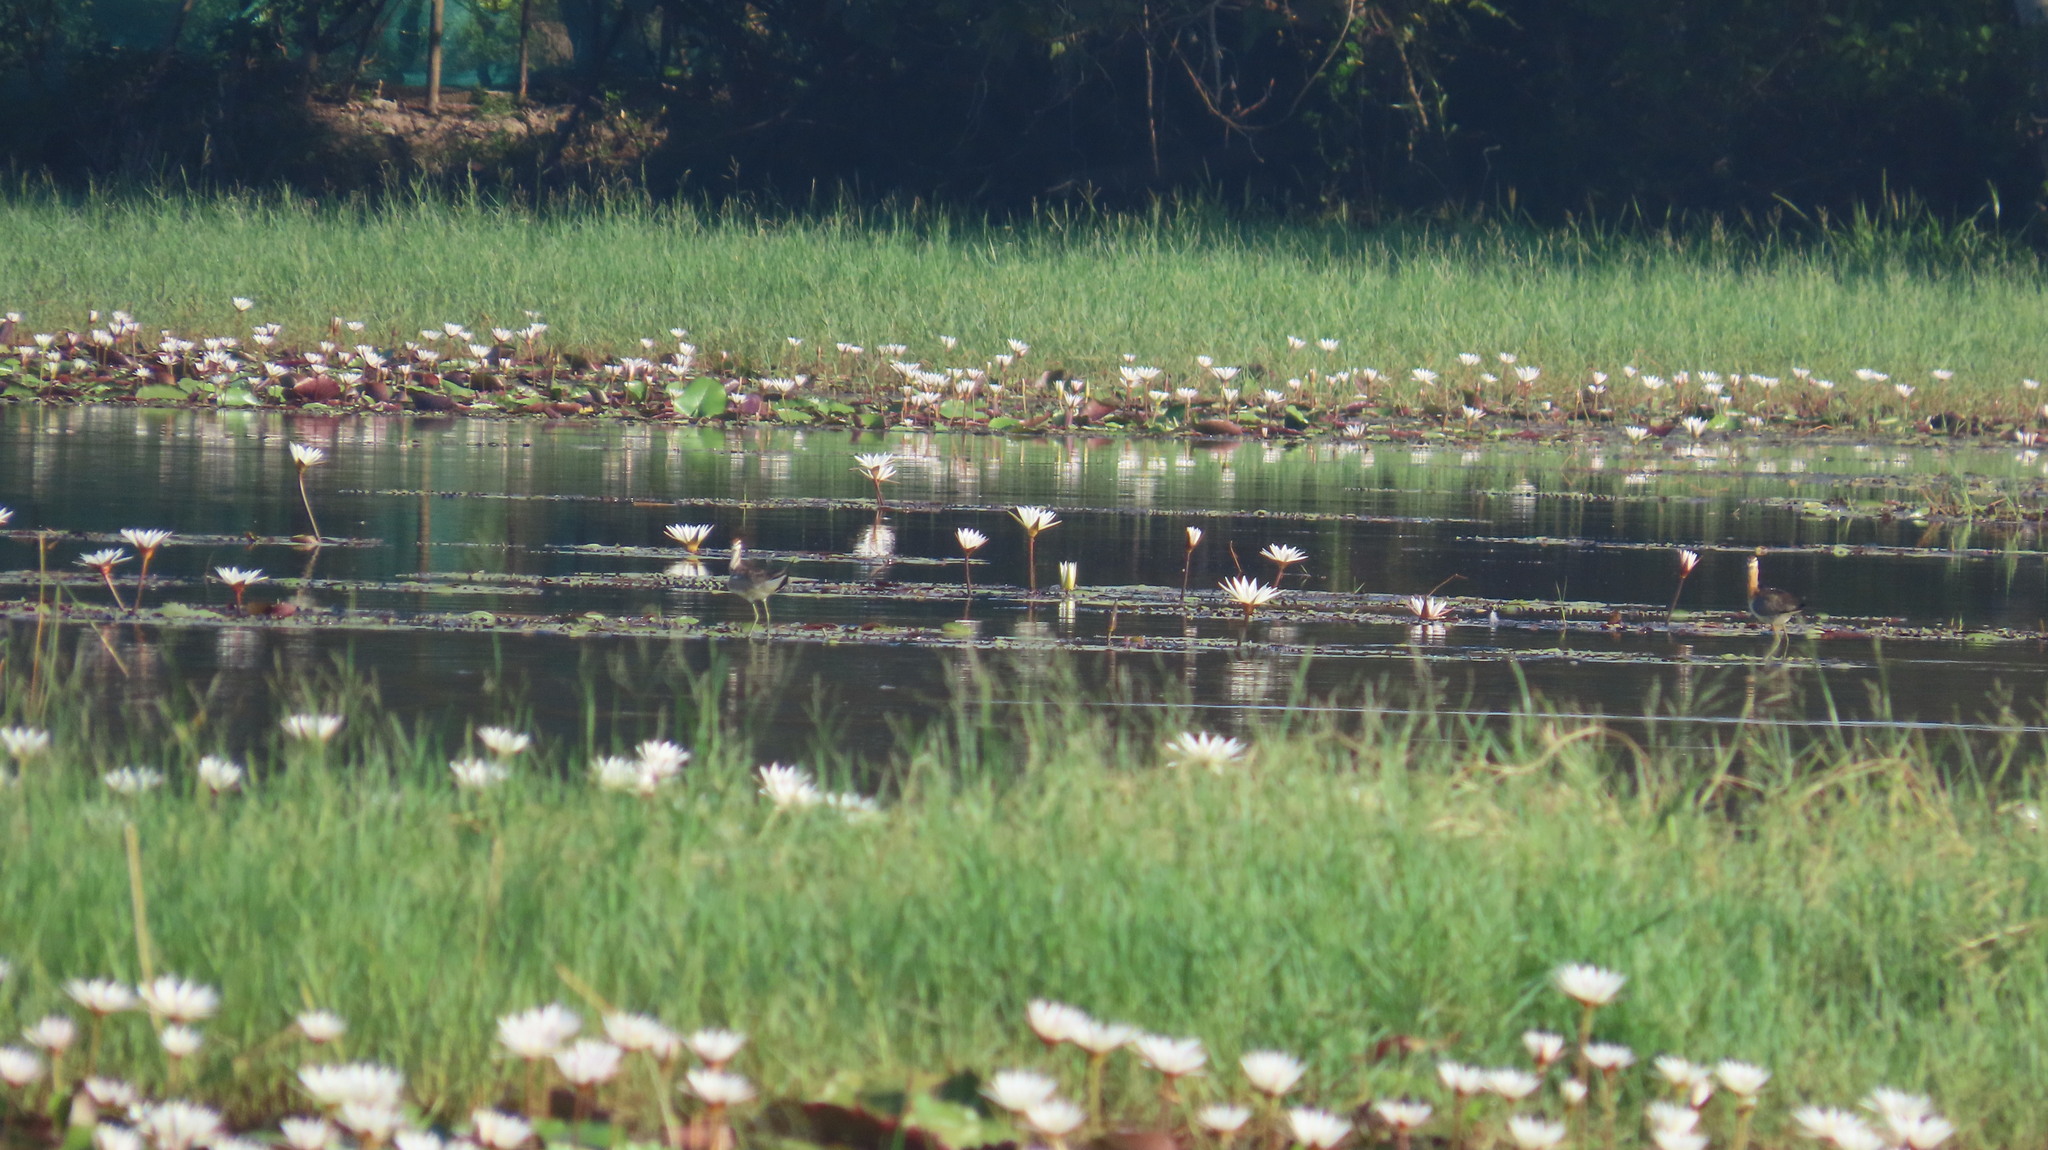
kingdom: Animalia
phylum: Chordata
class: Aves
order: Charadriiformes
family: Jacanidae
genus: Hydrophasianus
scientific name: Hydrophasianus chirurgus
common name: Pheasant-tailed jacana
